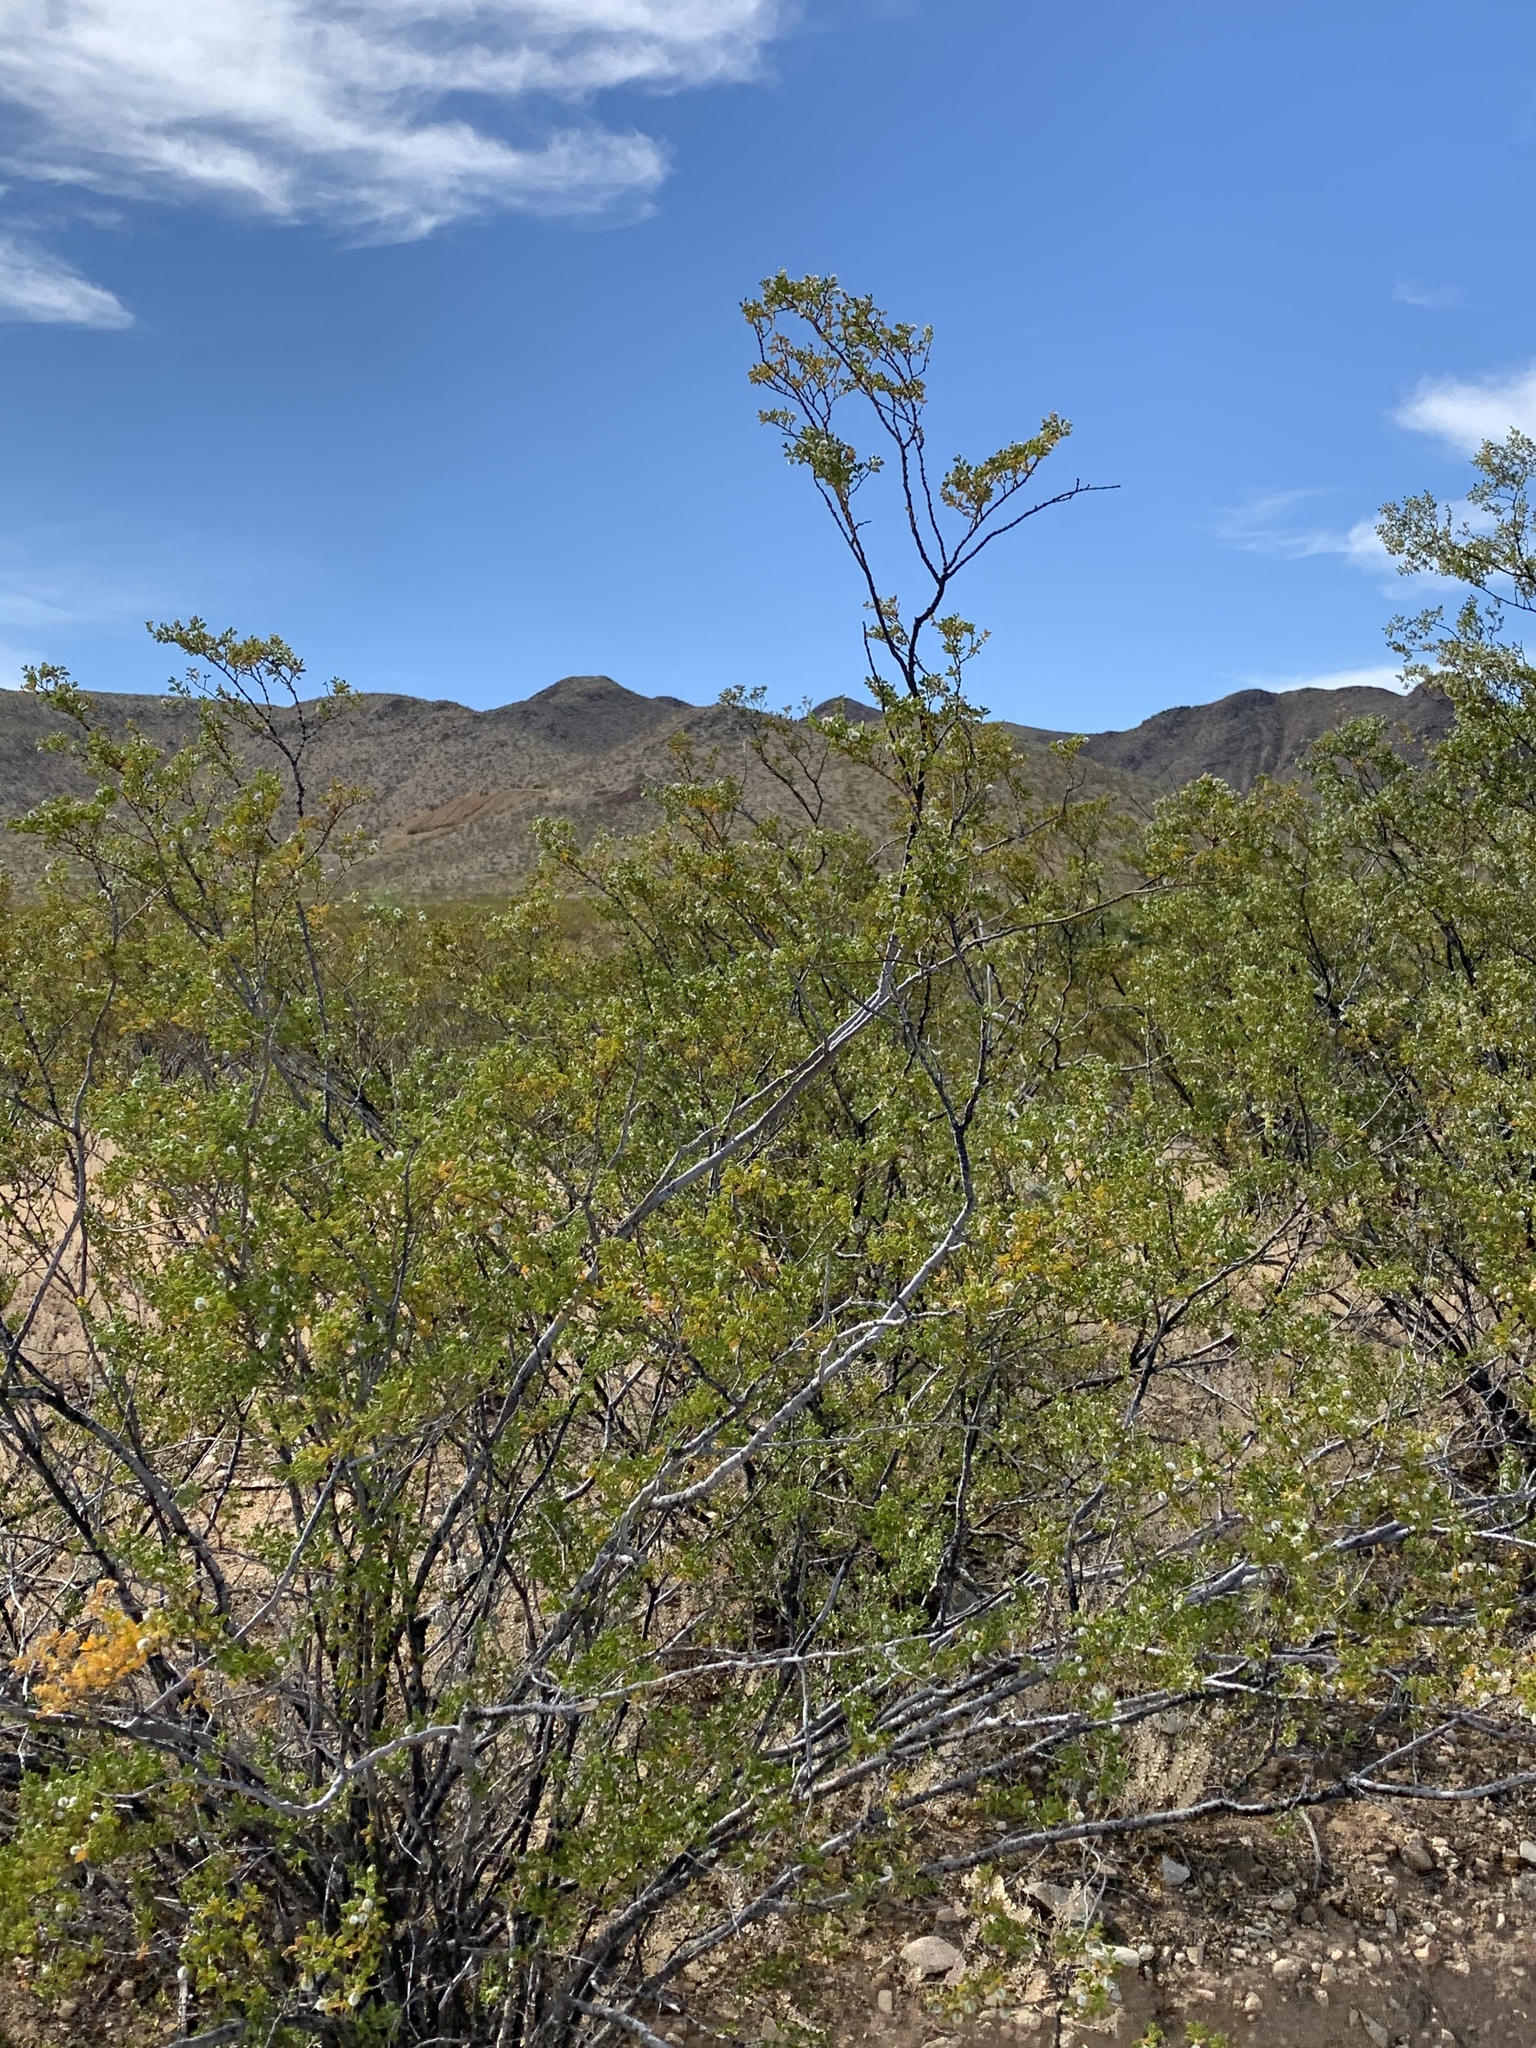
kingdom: Plantae
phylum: Tracheophyta
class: Magnoliopsida
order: Zygophyllales
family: Zygophyllaceae
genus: Larrea
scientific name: Larrea tridentata
